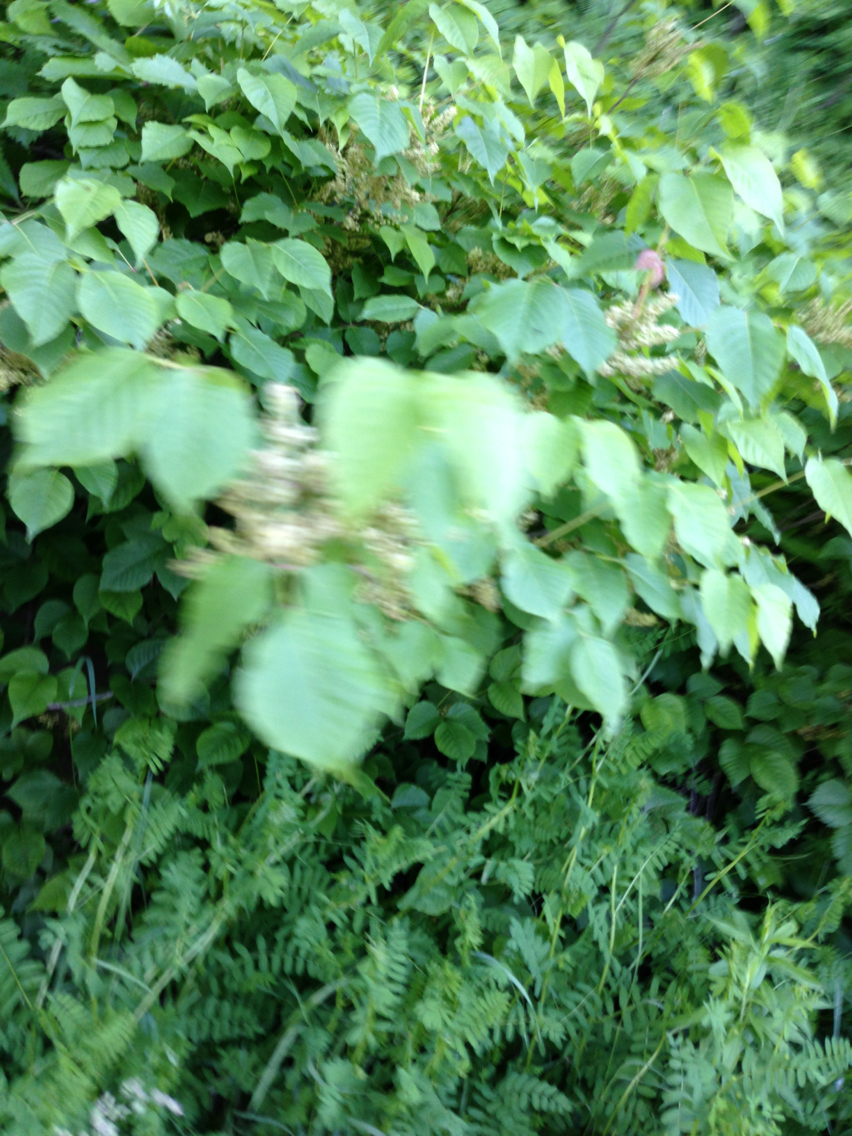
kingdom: Plantae
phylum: Tracheophyta
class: Magnoliopsida
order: Sapindales
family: Anacardiaceae
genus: Toxicodendron
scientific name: Toxicodendron radicans
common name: Poison ivy
